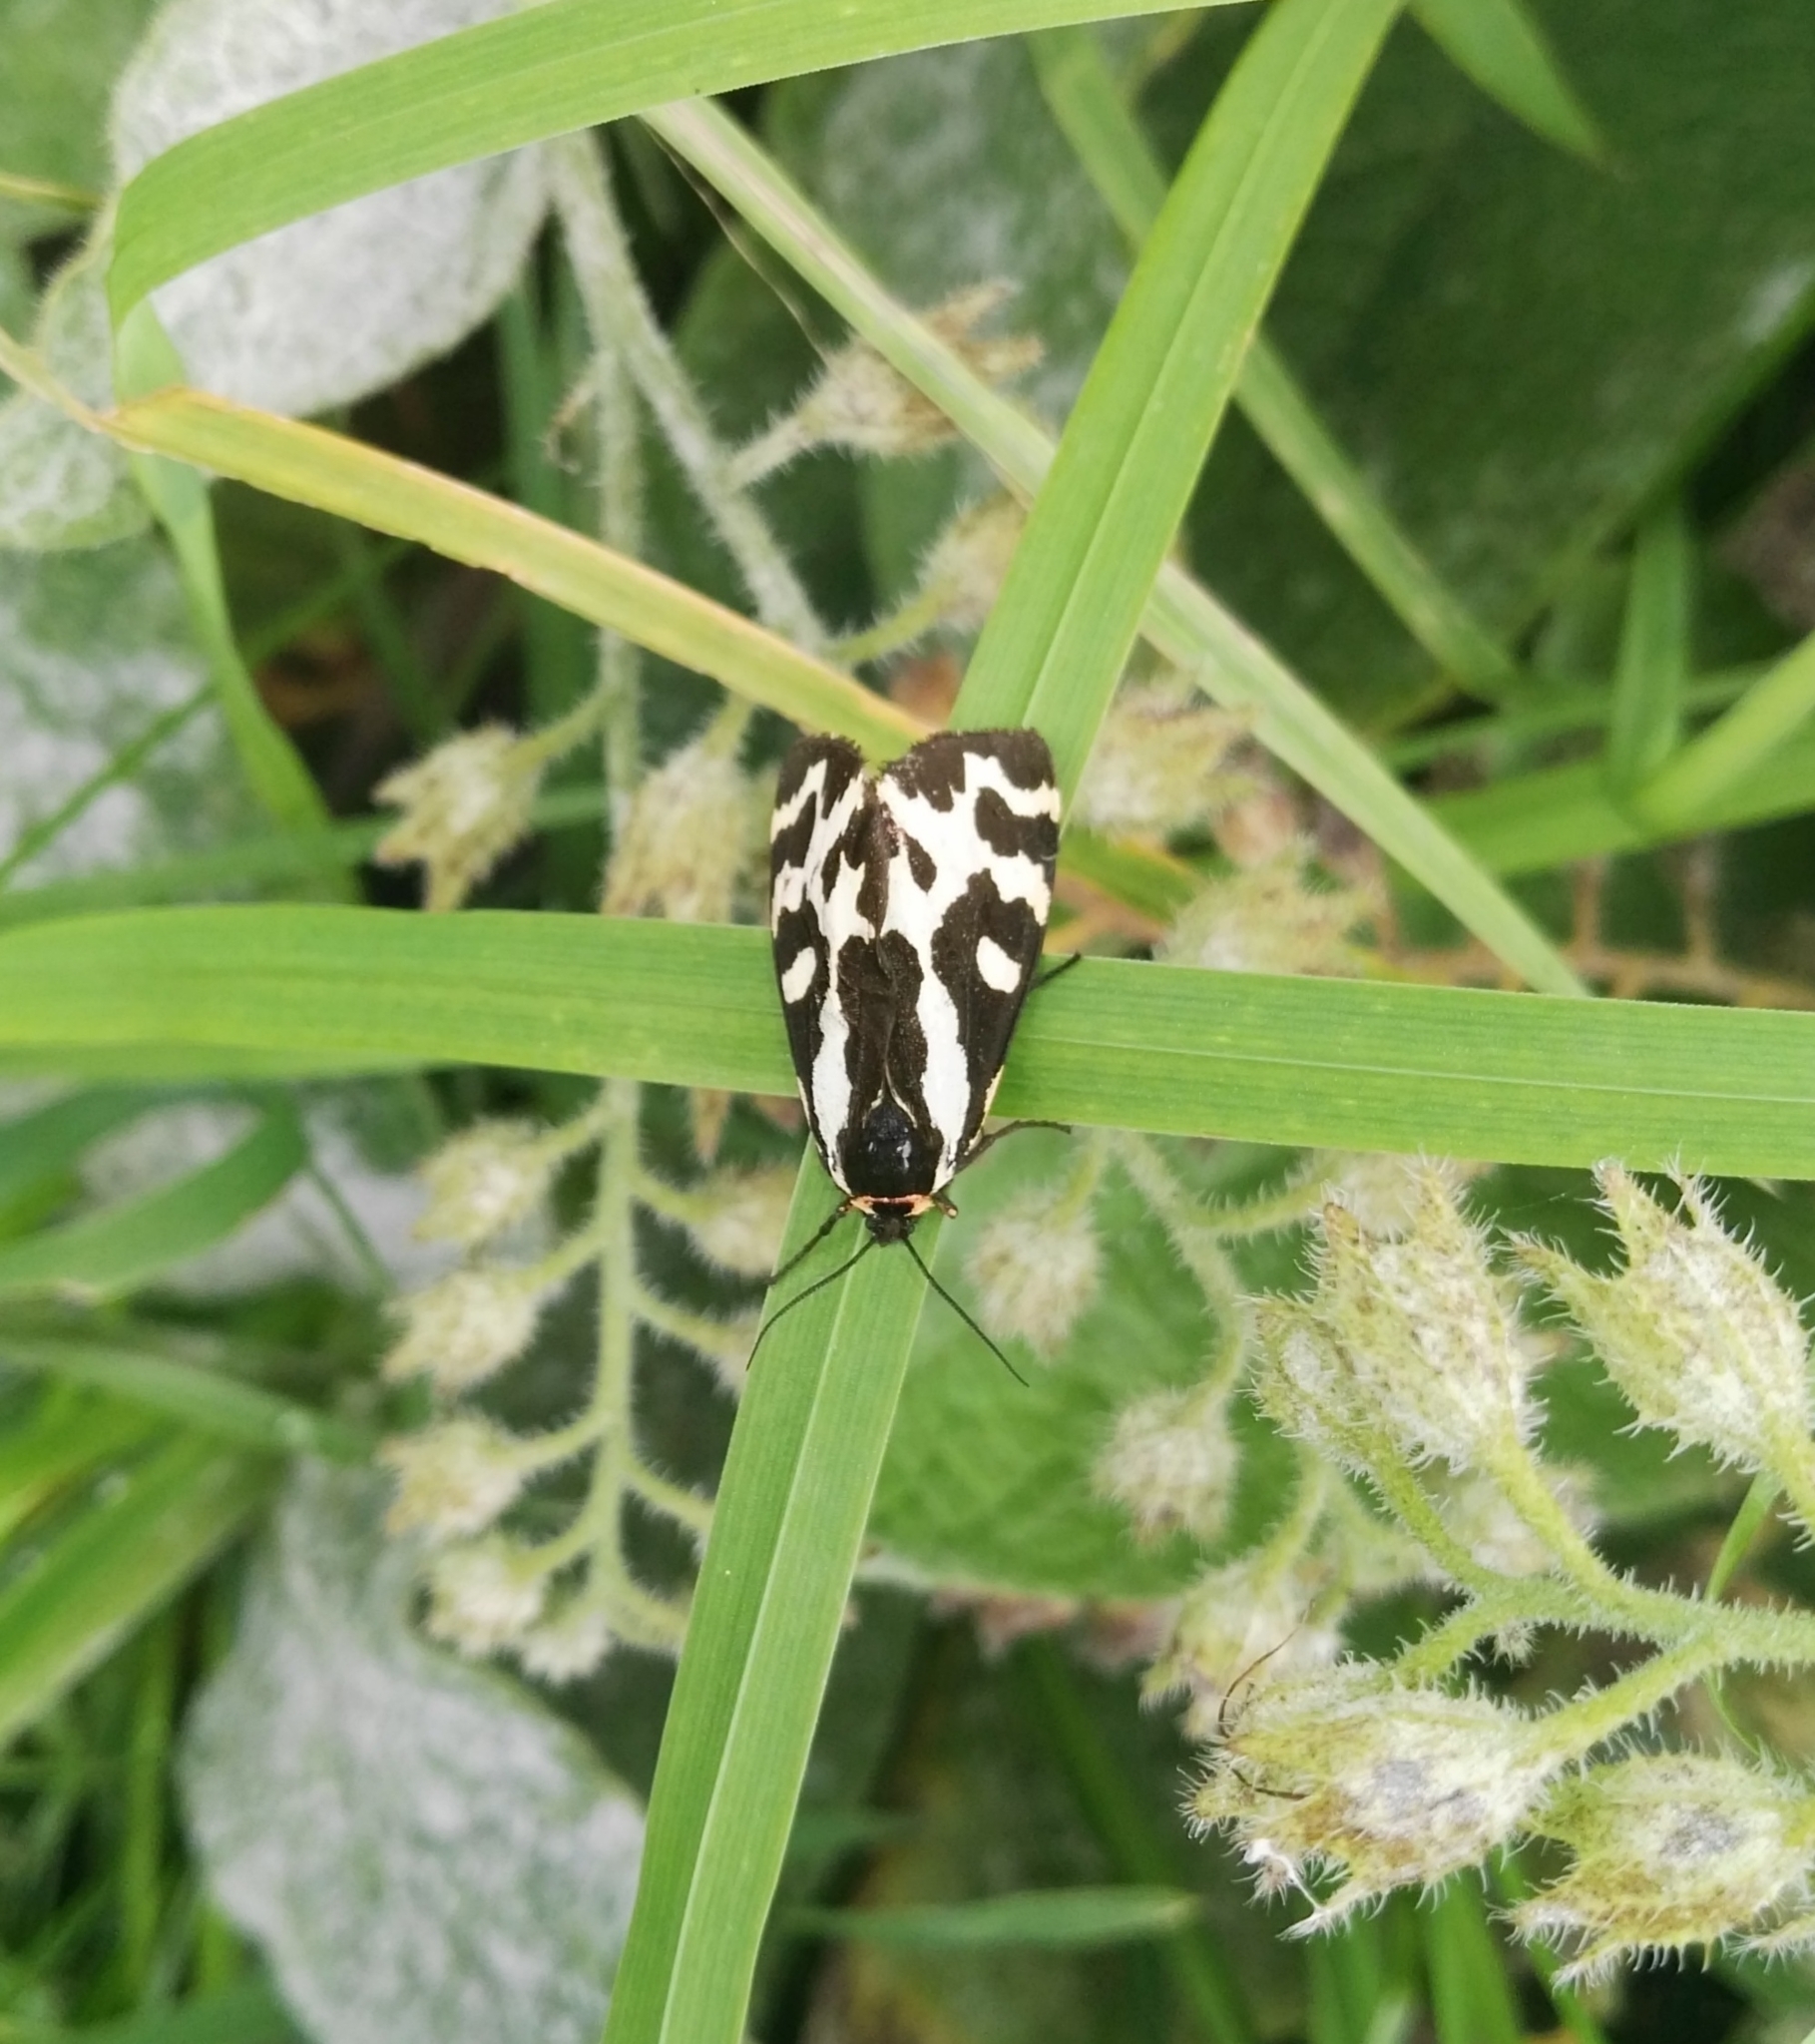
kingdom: Animalia
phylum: Arthropoda
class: Insecta
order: Lepidoptera
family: Erebidae
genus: Parasemia
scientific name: Parasemia plantaginis
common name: Wood tiger
